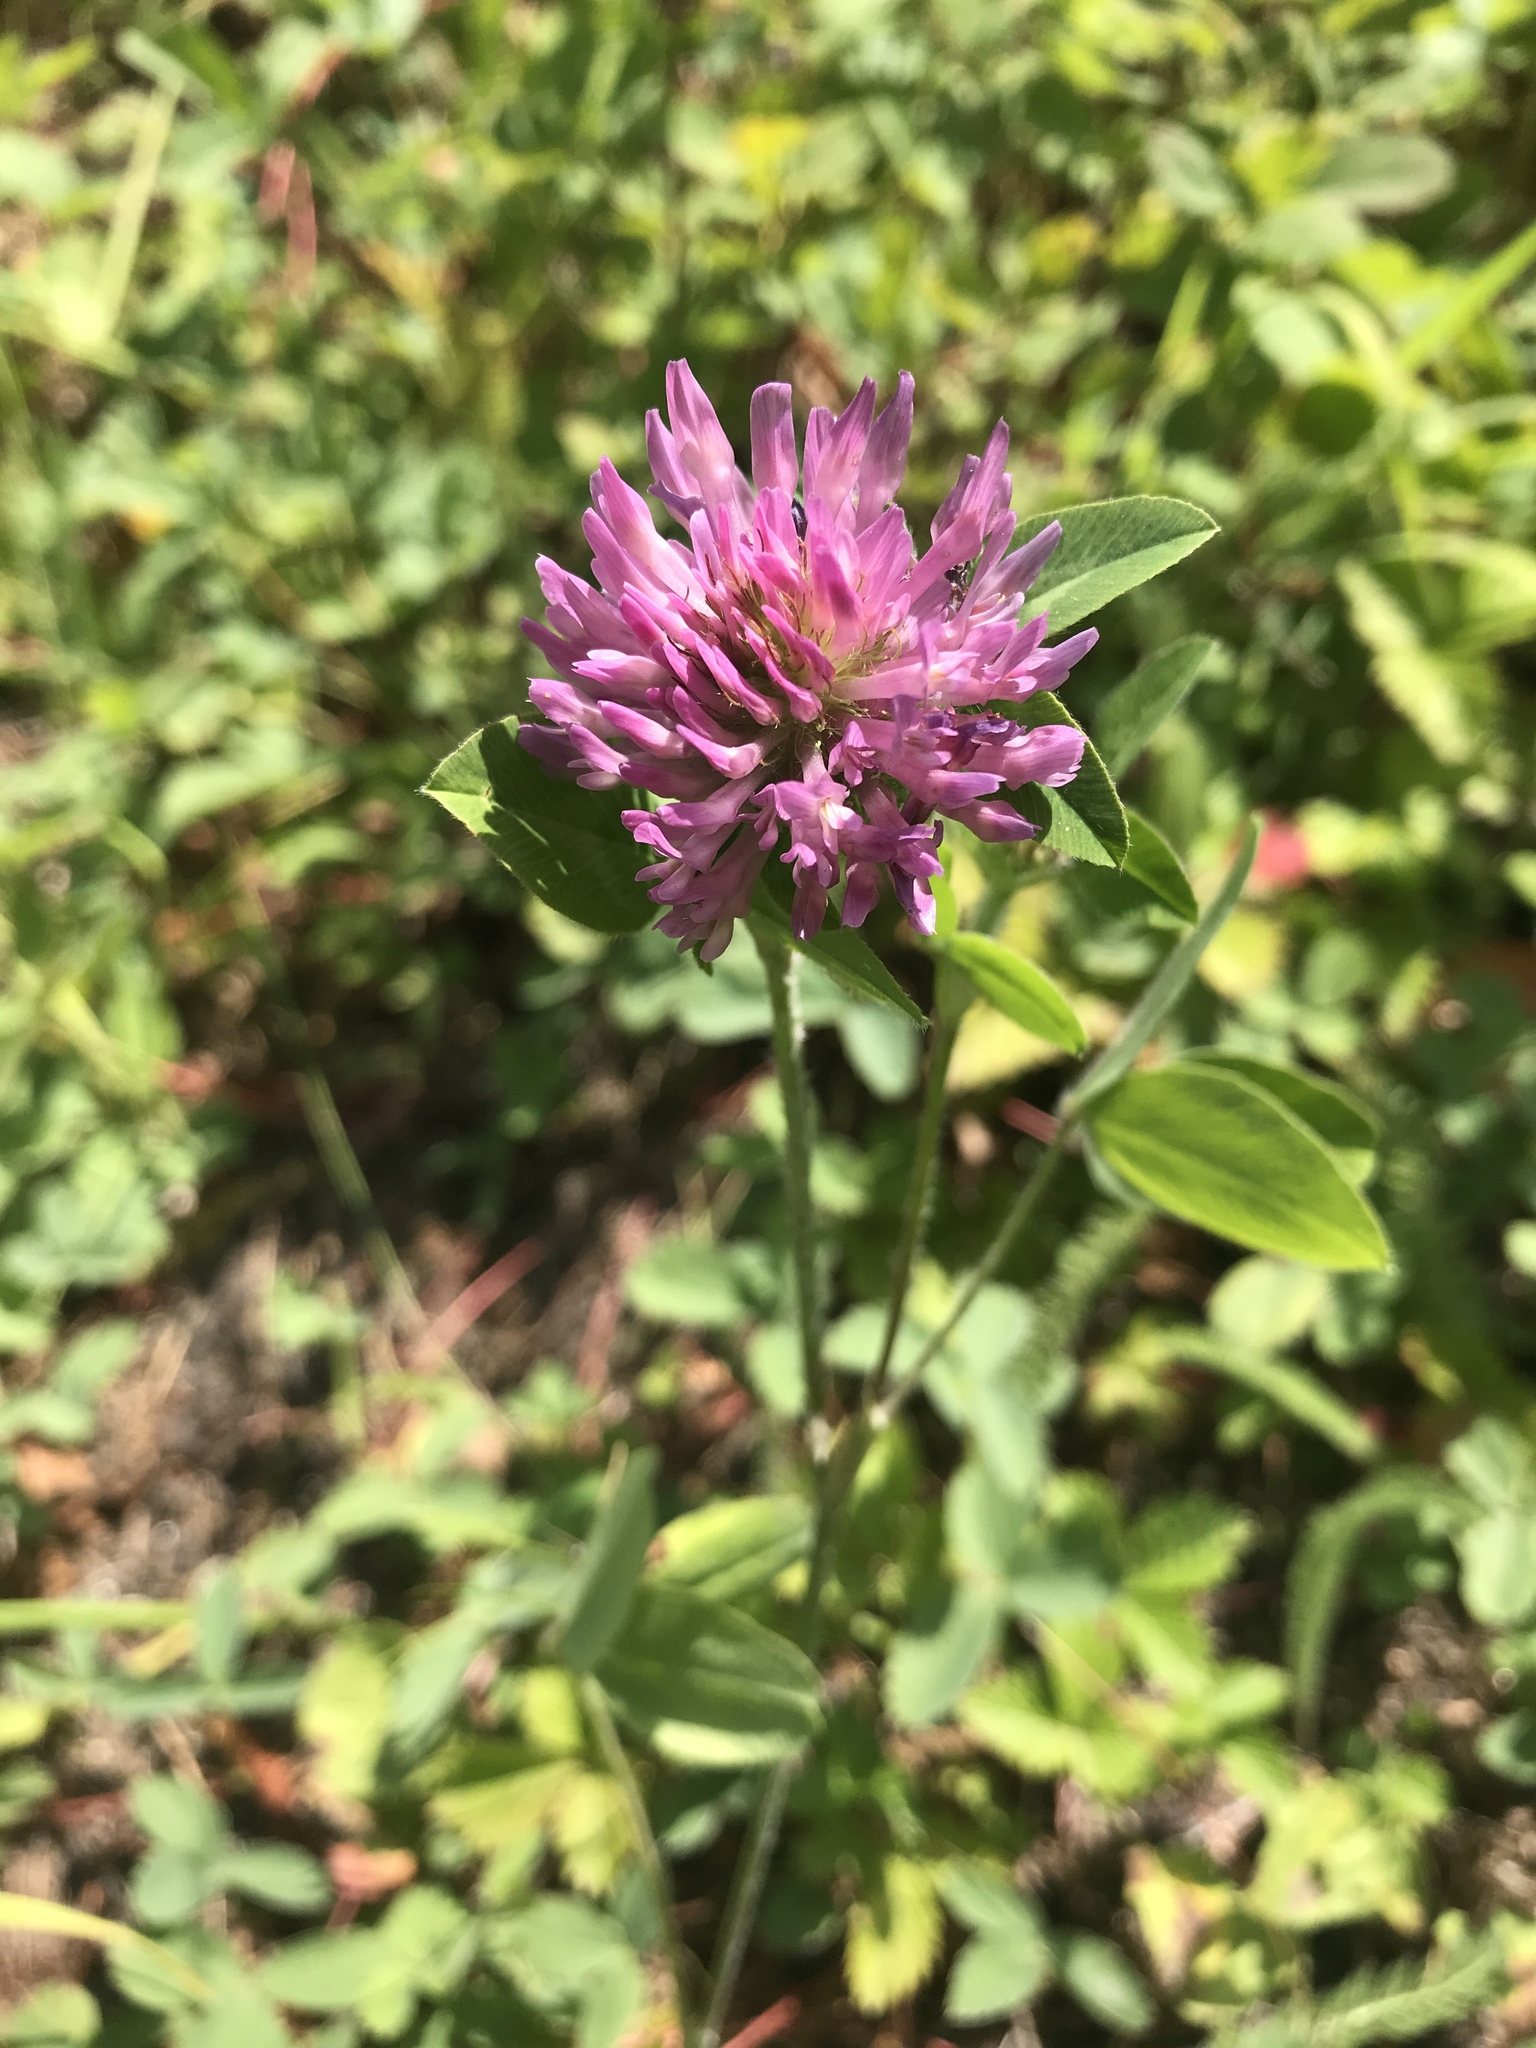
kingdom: Plantae
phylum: Tracheophyta
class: Magnoliopsida
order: Fabales
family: Fabaceae
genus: Trifolium
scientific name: Trifolium pratense
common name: Red clover
